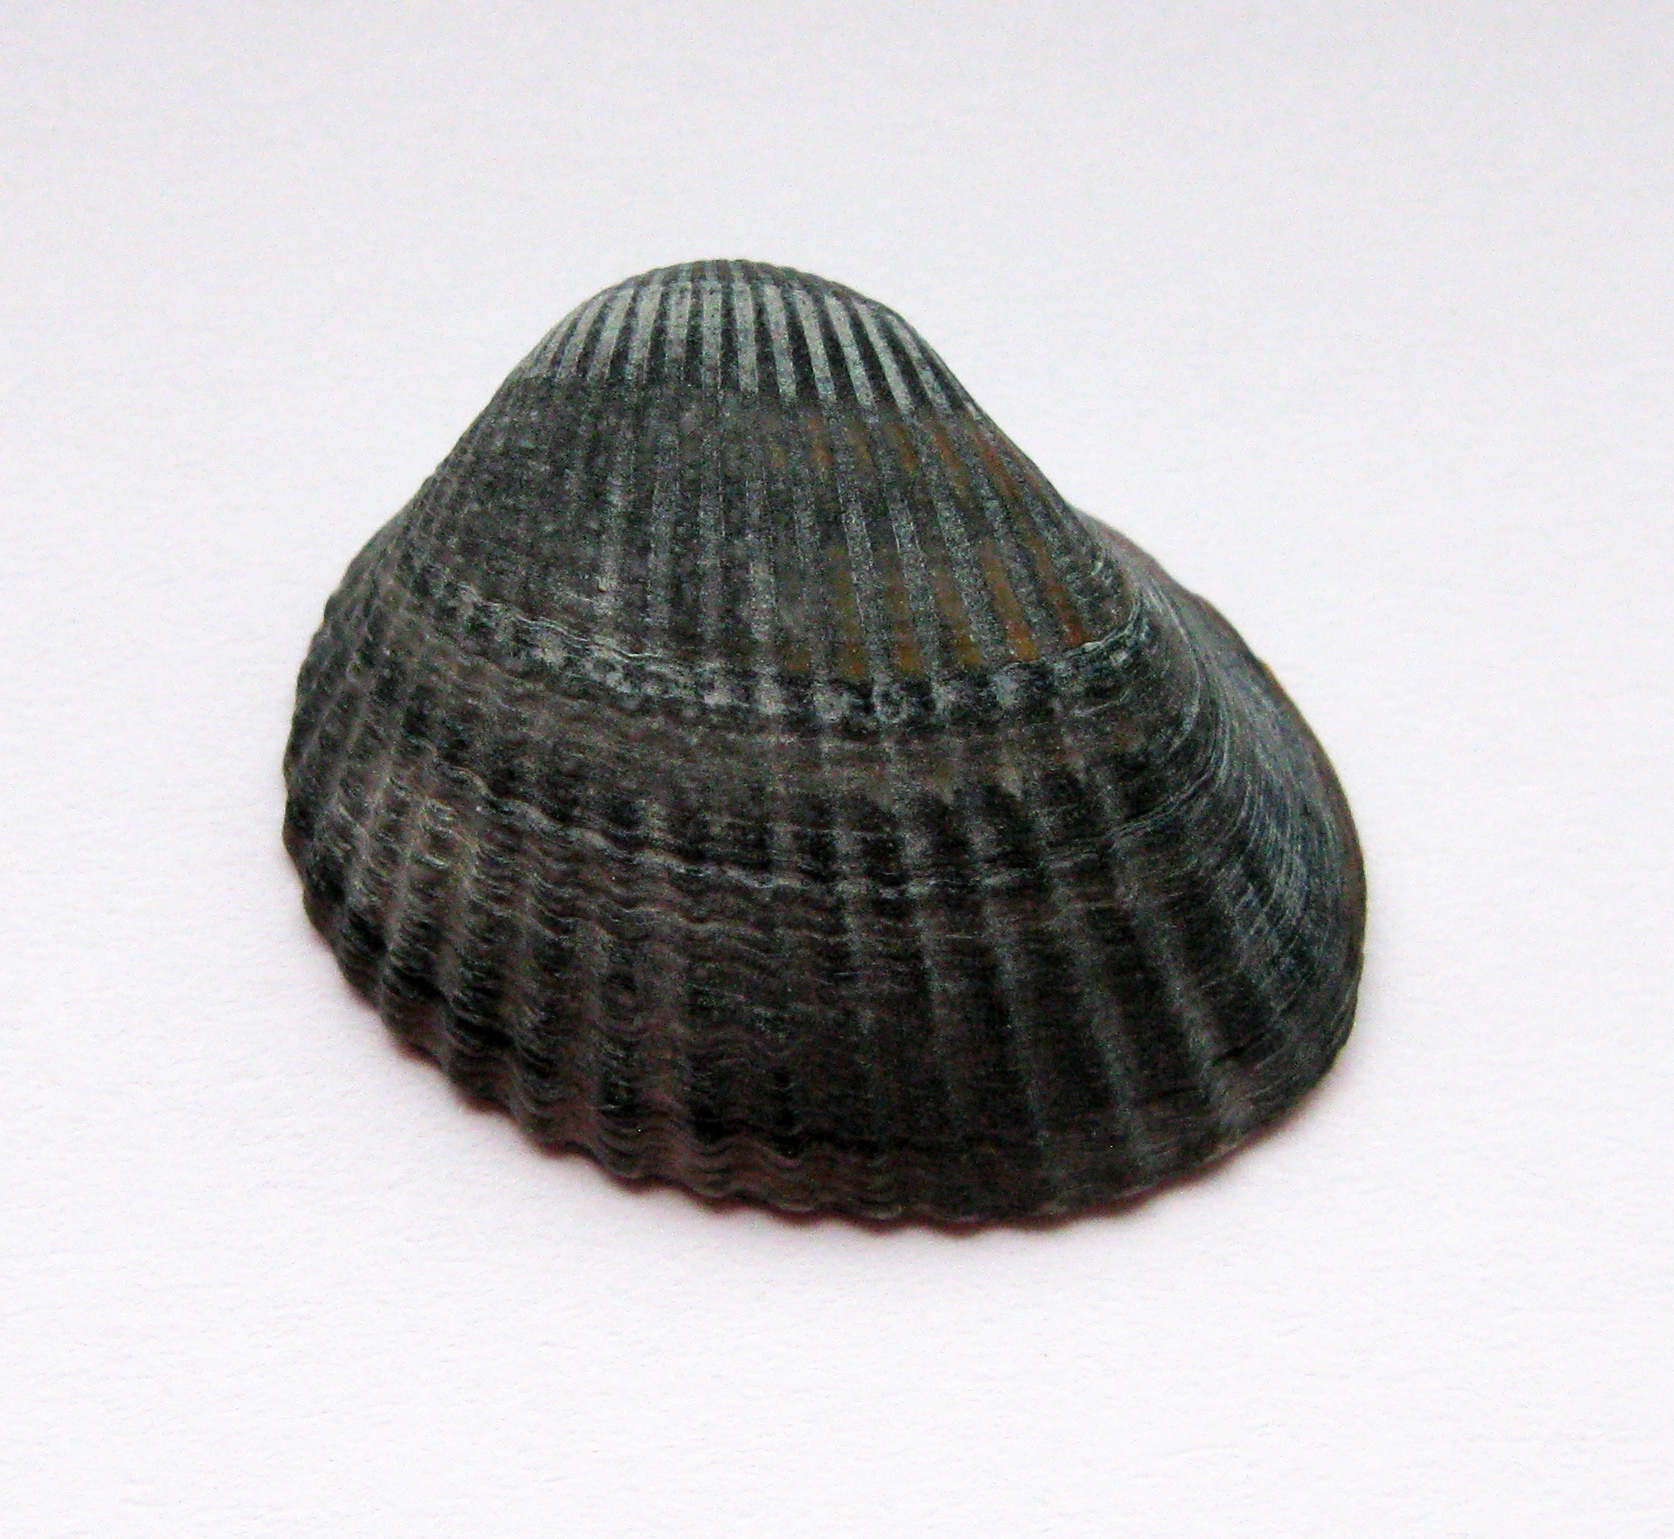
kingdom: Animalia
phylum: Mollusca
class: Bivalvia
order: Cardiida
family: Cardiidae
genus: Cerastoderma
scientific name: Cerastoderma glaucum
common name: Lagoon cockle
